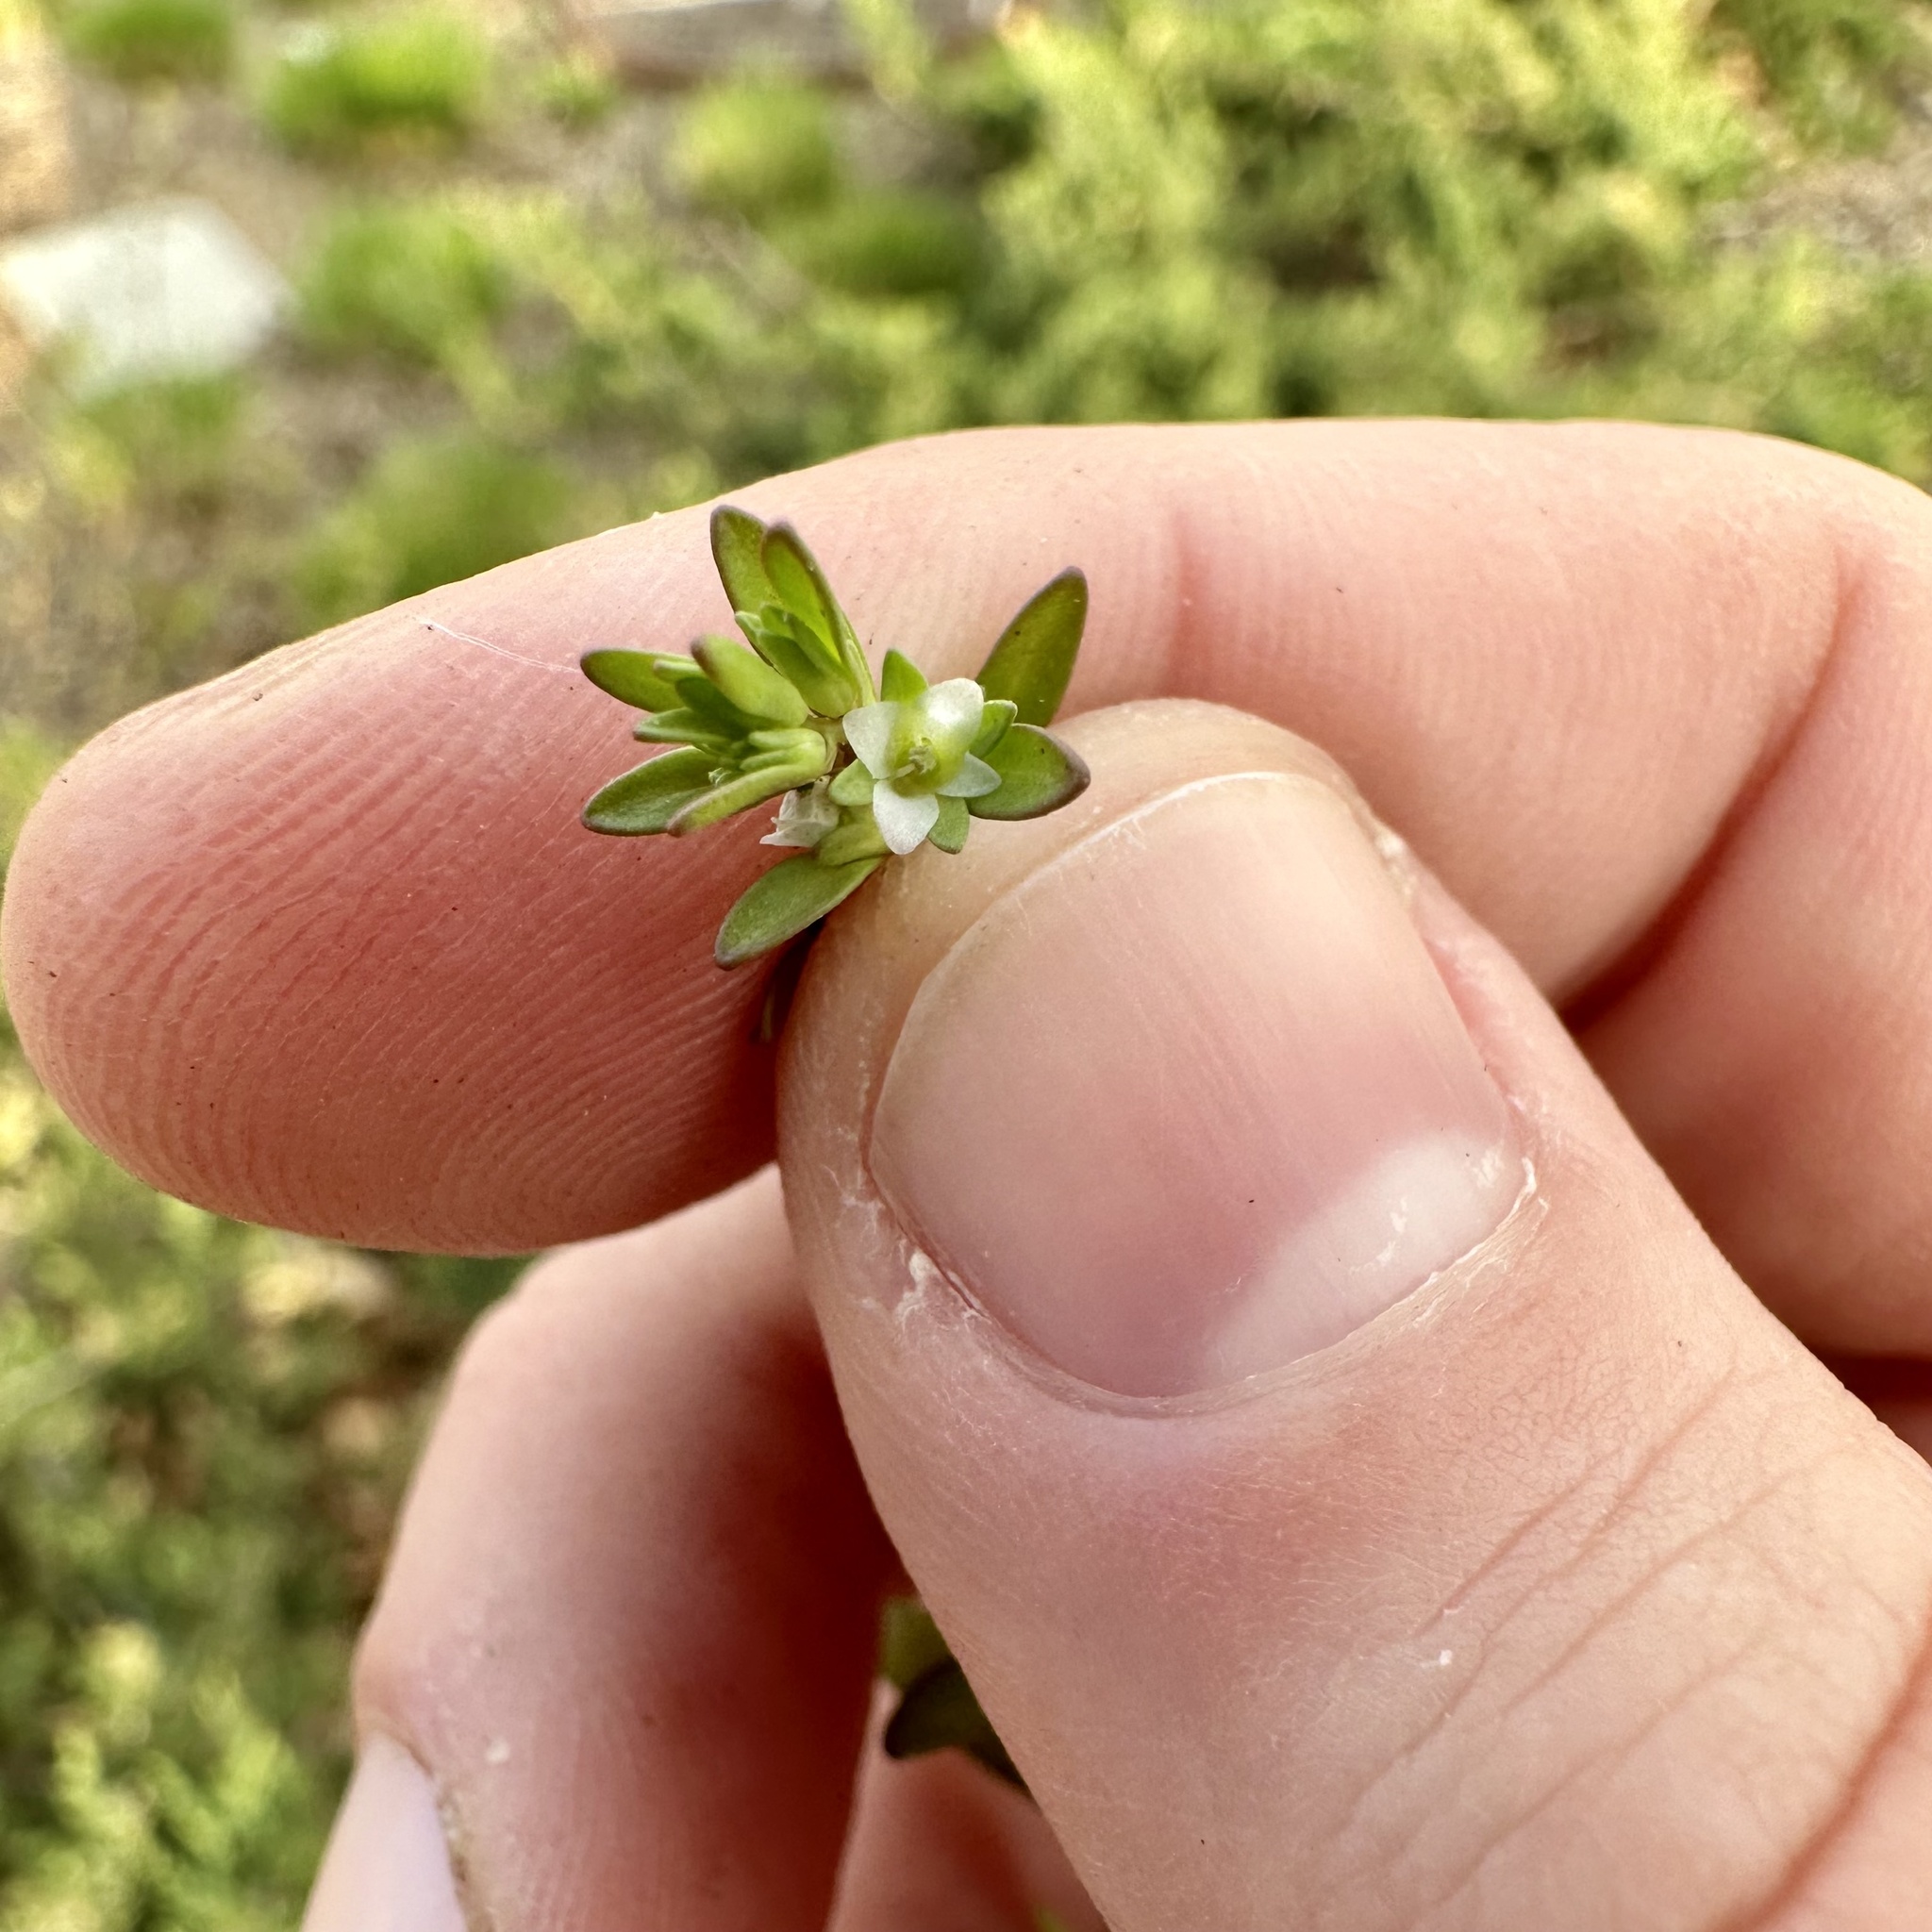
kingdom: Plantae
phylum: Tracheophyta
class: Magnoliopsida
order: Lamiales
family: Plantaginaceae
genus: Veronica
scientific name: Veronica peregrina
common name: Neckweed
